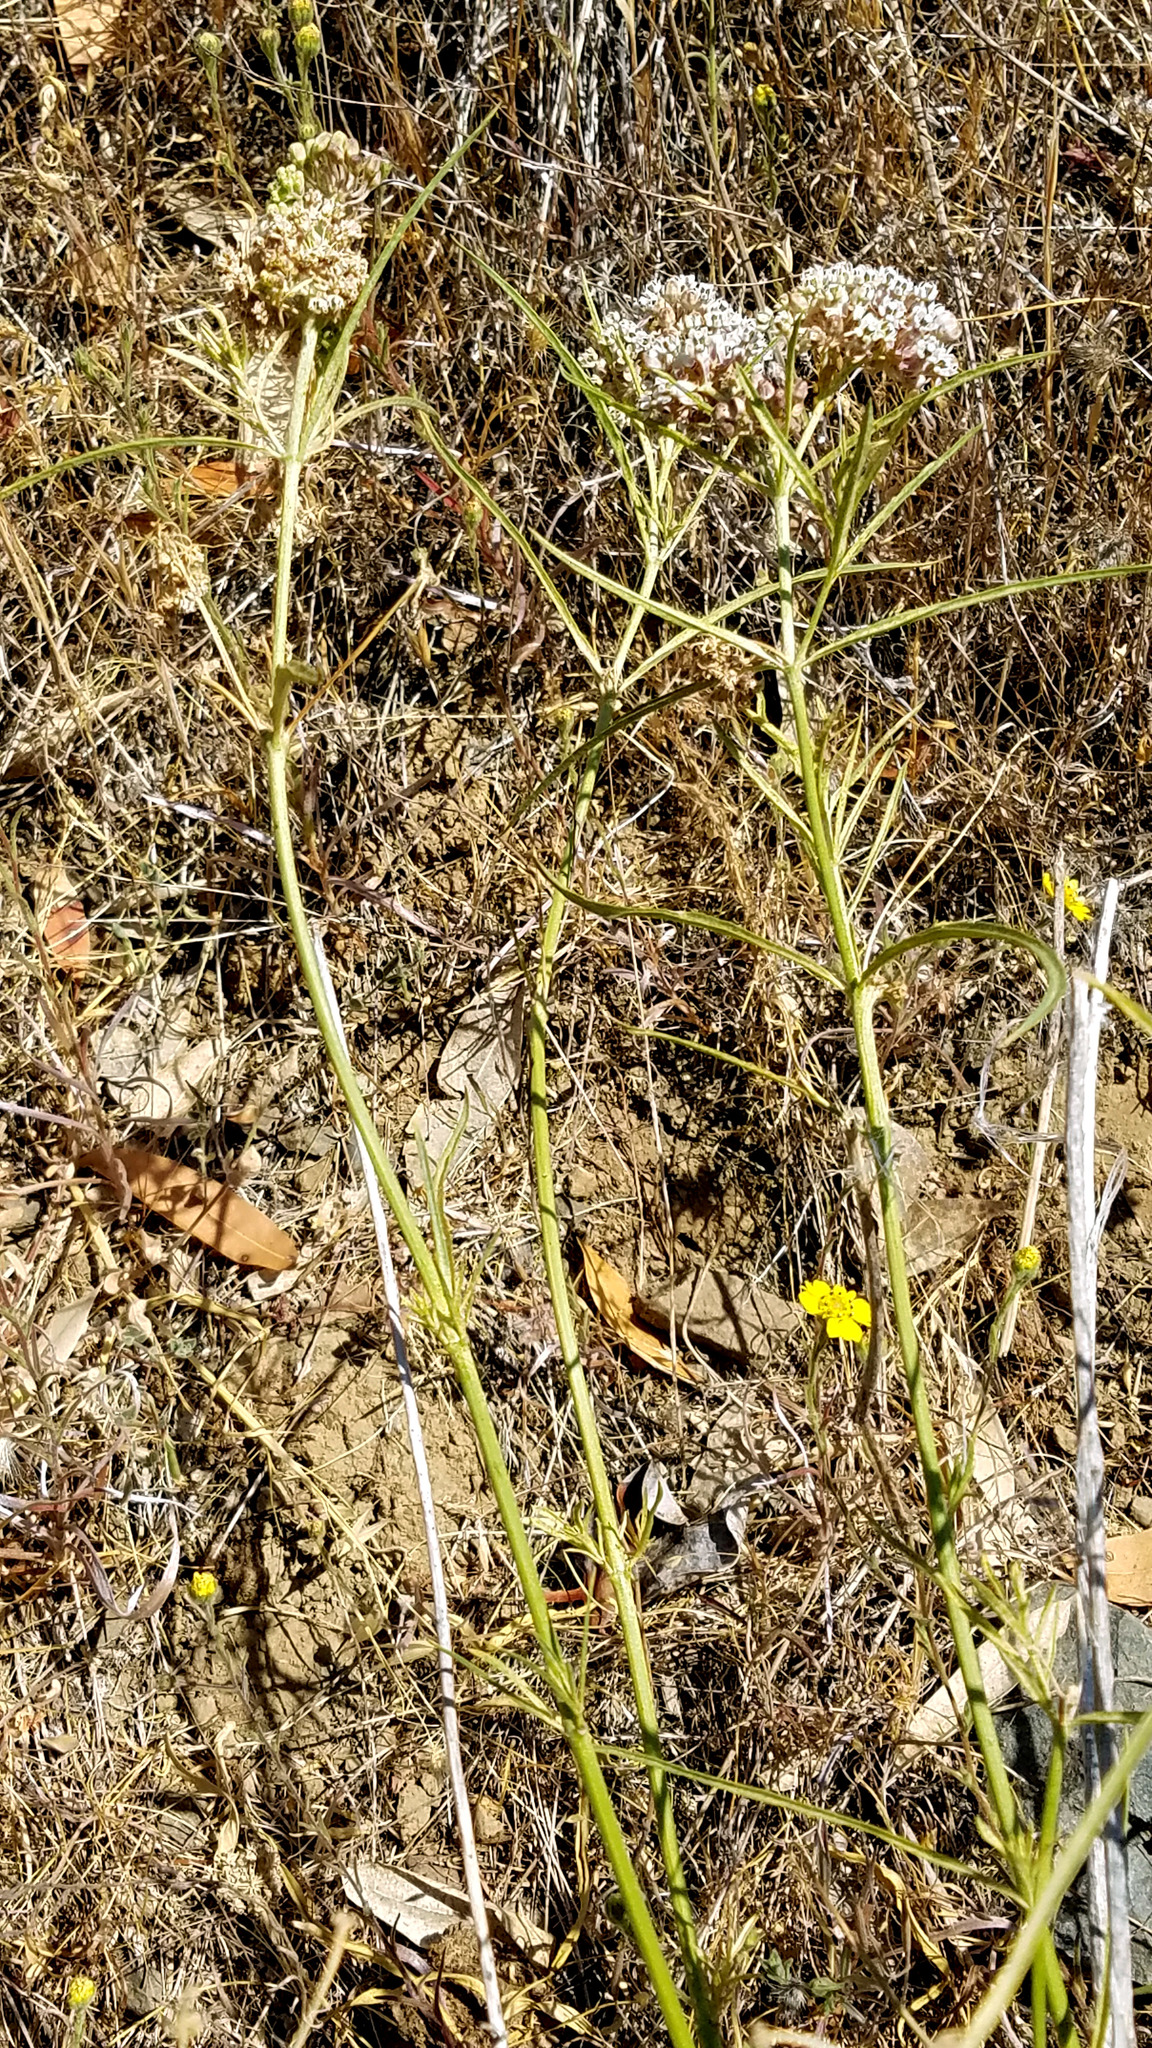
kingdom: Plantae
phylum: Tracheophyta
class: Magnoliopsida
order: Gentianales
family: Apocynaceae
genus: Asclepias
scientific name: Asclepias fascicularis
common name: Mexican milkweed
